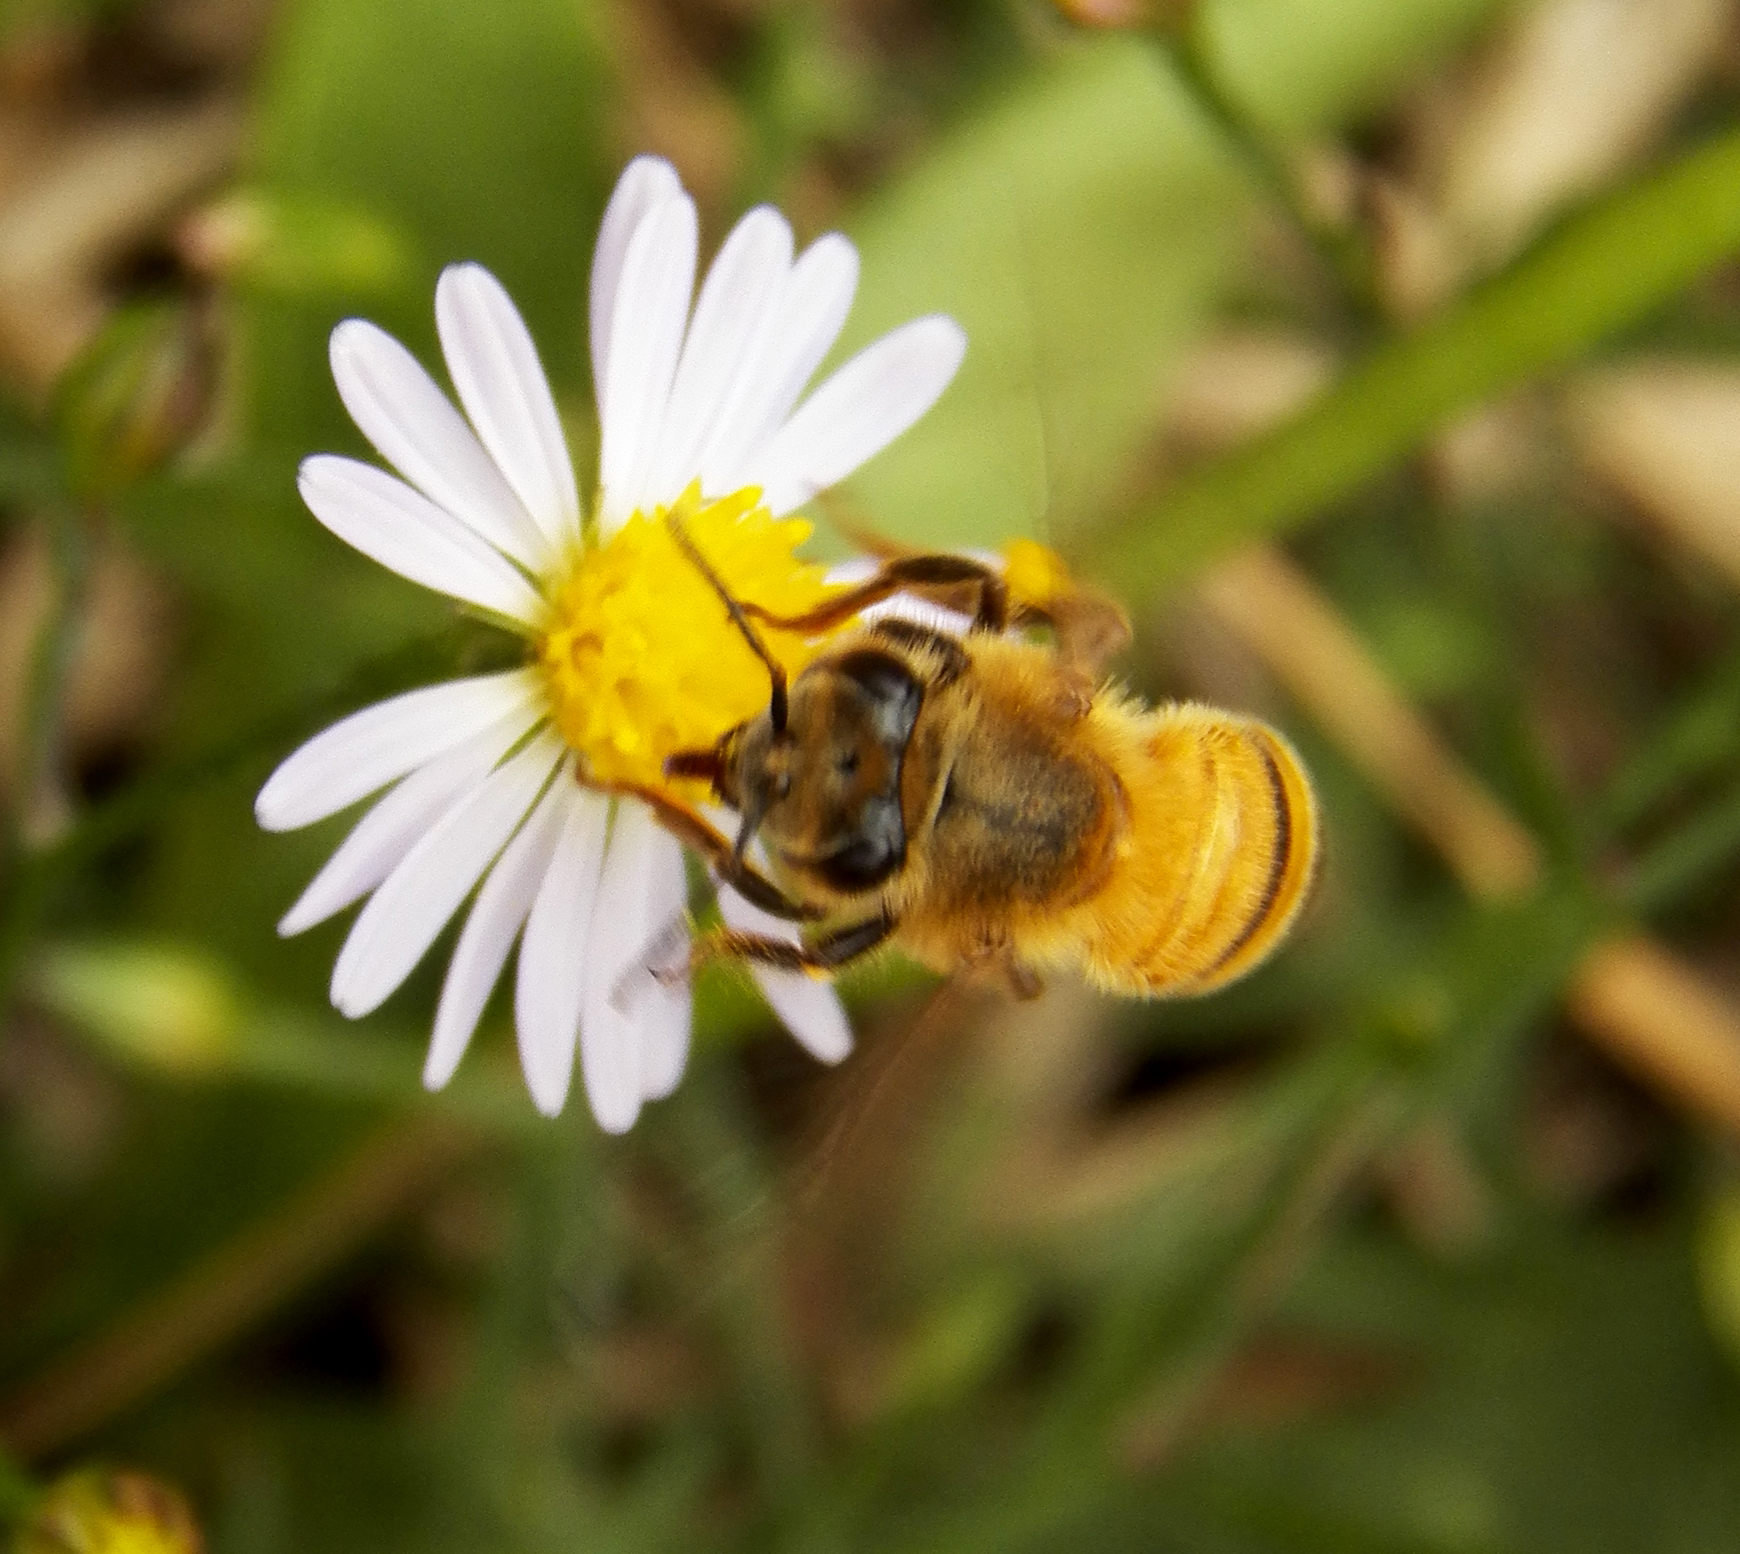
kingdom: Animalia
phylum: Arthropoda
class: Insecta
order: Hymenoptera
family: Apidae
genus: Apis
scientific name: Apis mellifera
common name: Honey bee
